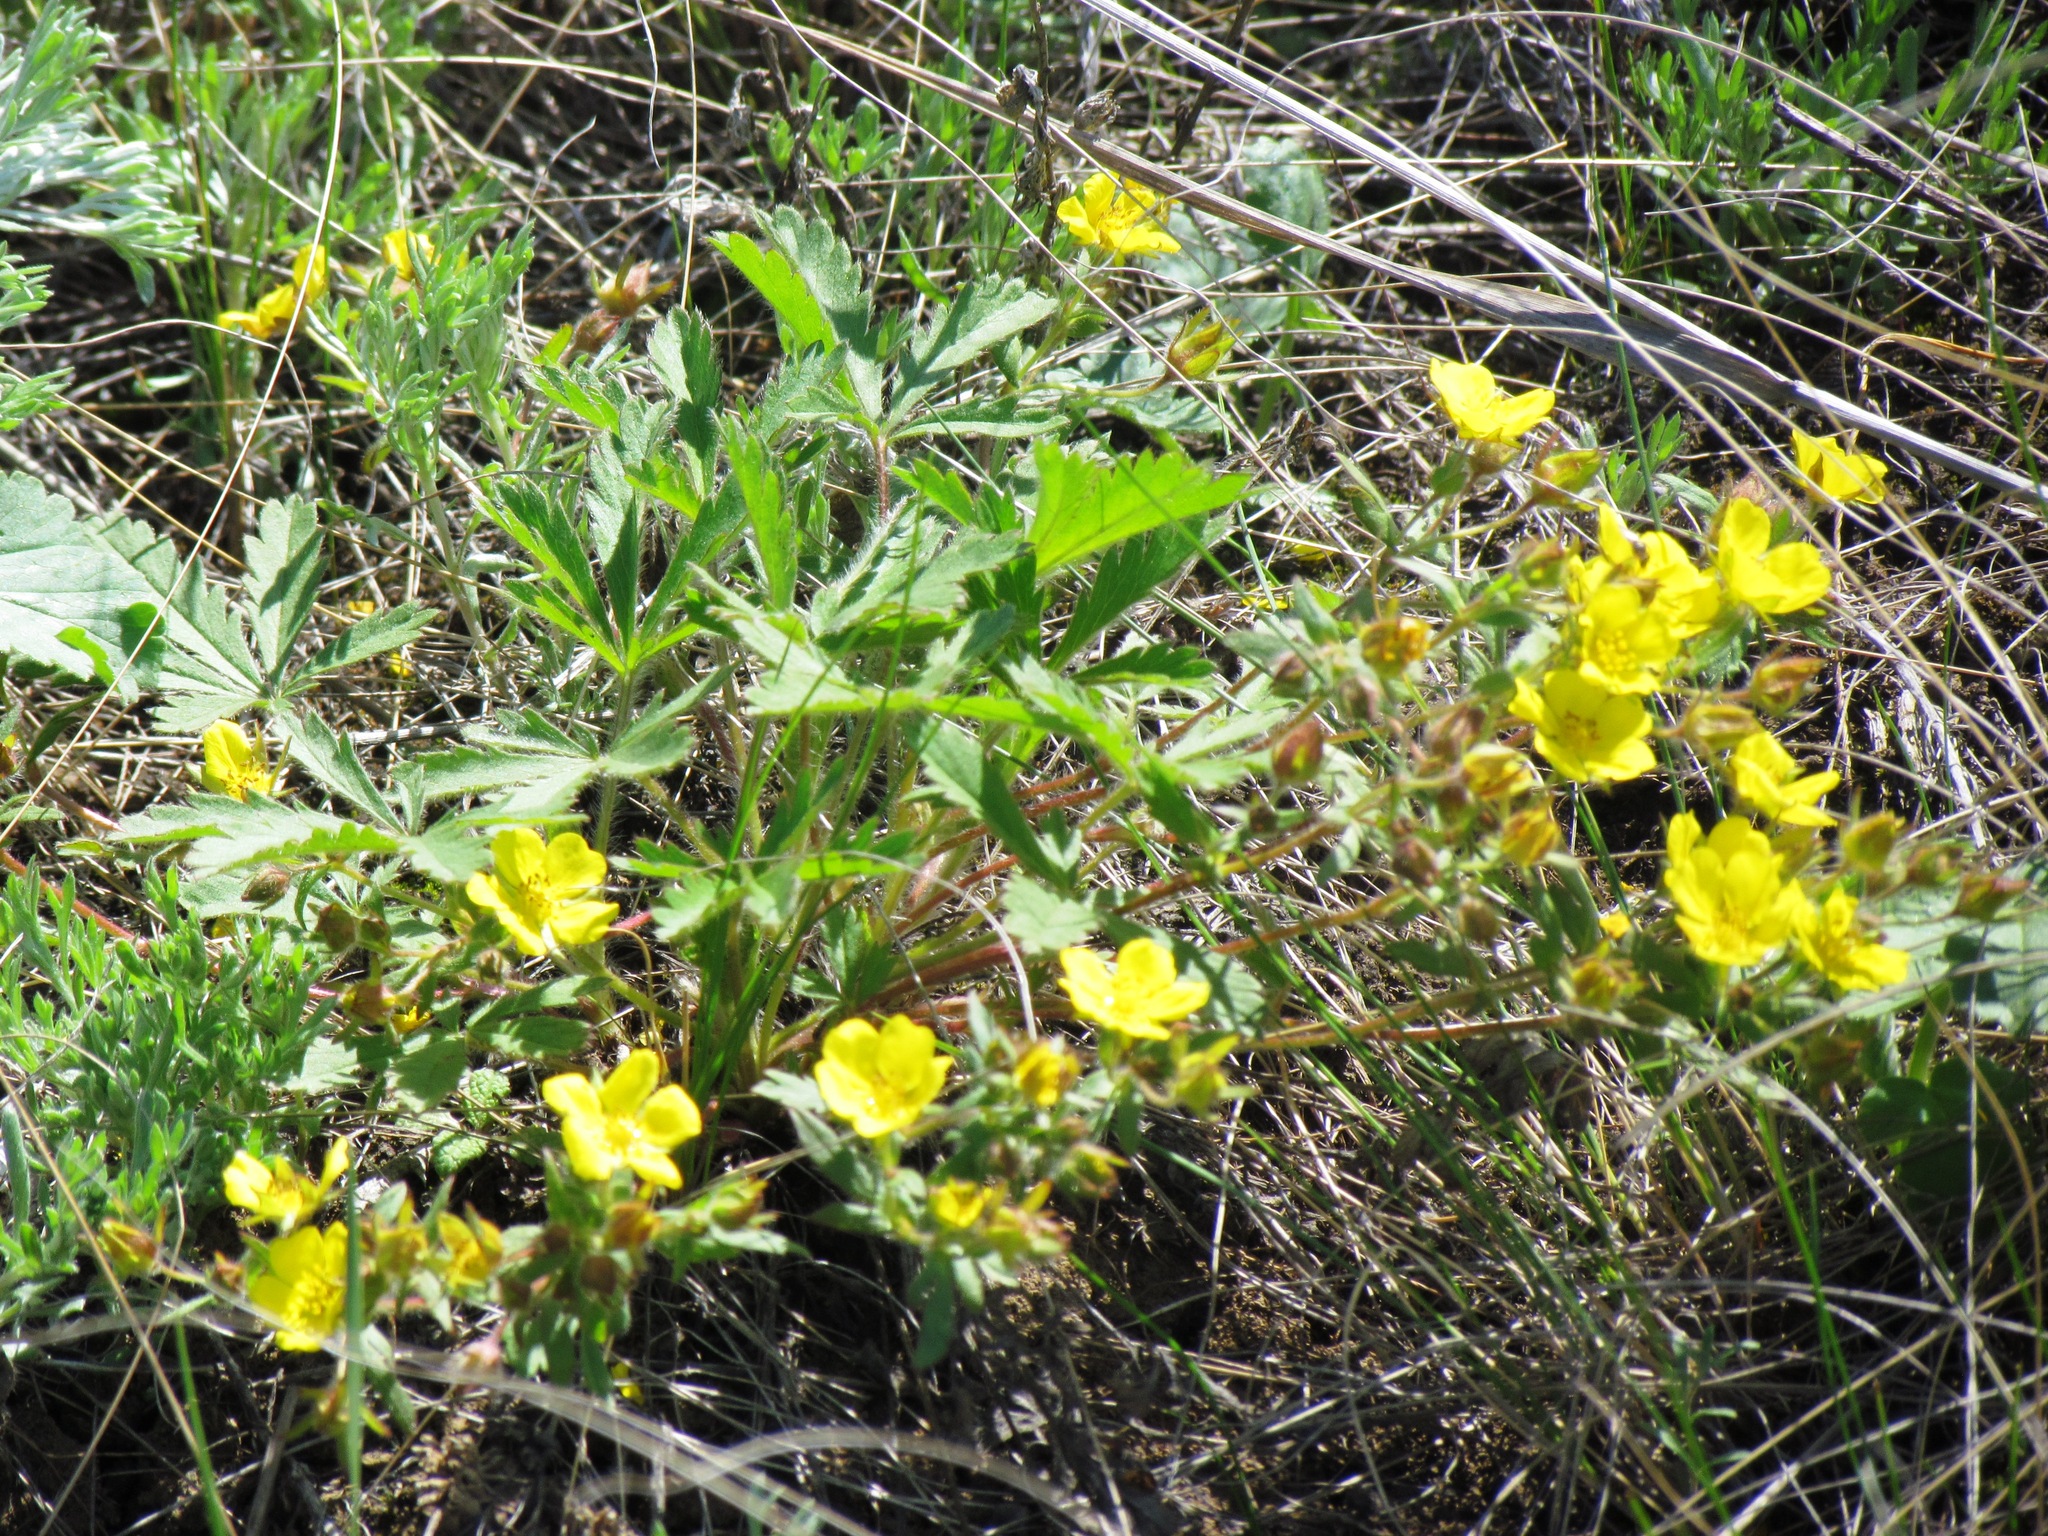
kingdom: Plantae
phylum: Tracheophyta
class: Magnoliopsida
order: Rosales
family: Rosaceae
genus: Potentilla
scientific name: Potentilla humifusa
